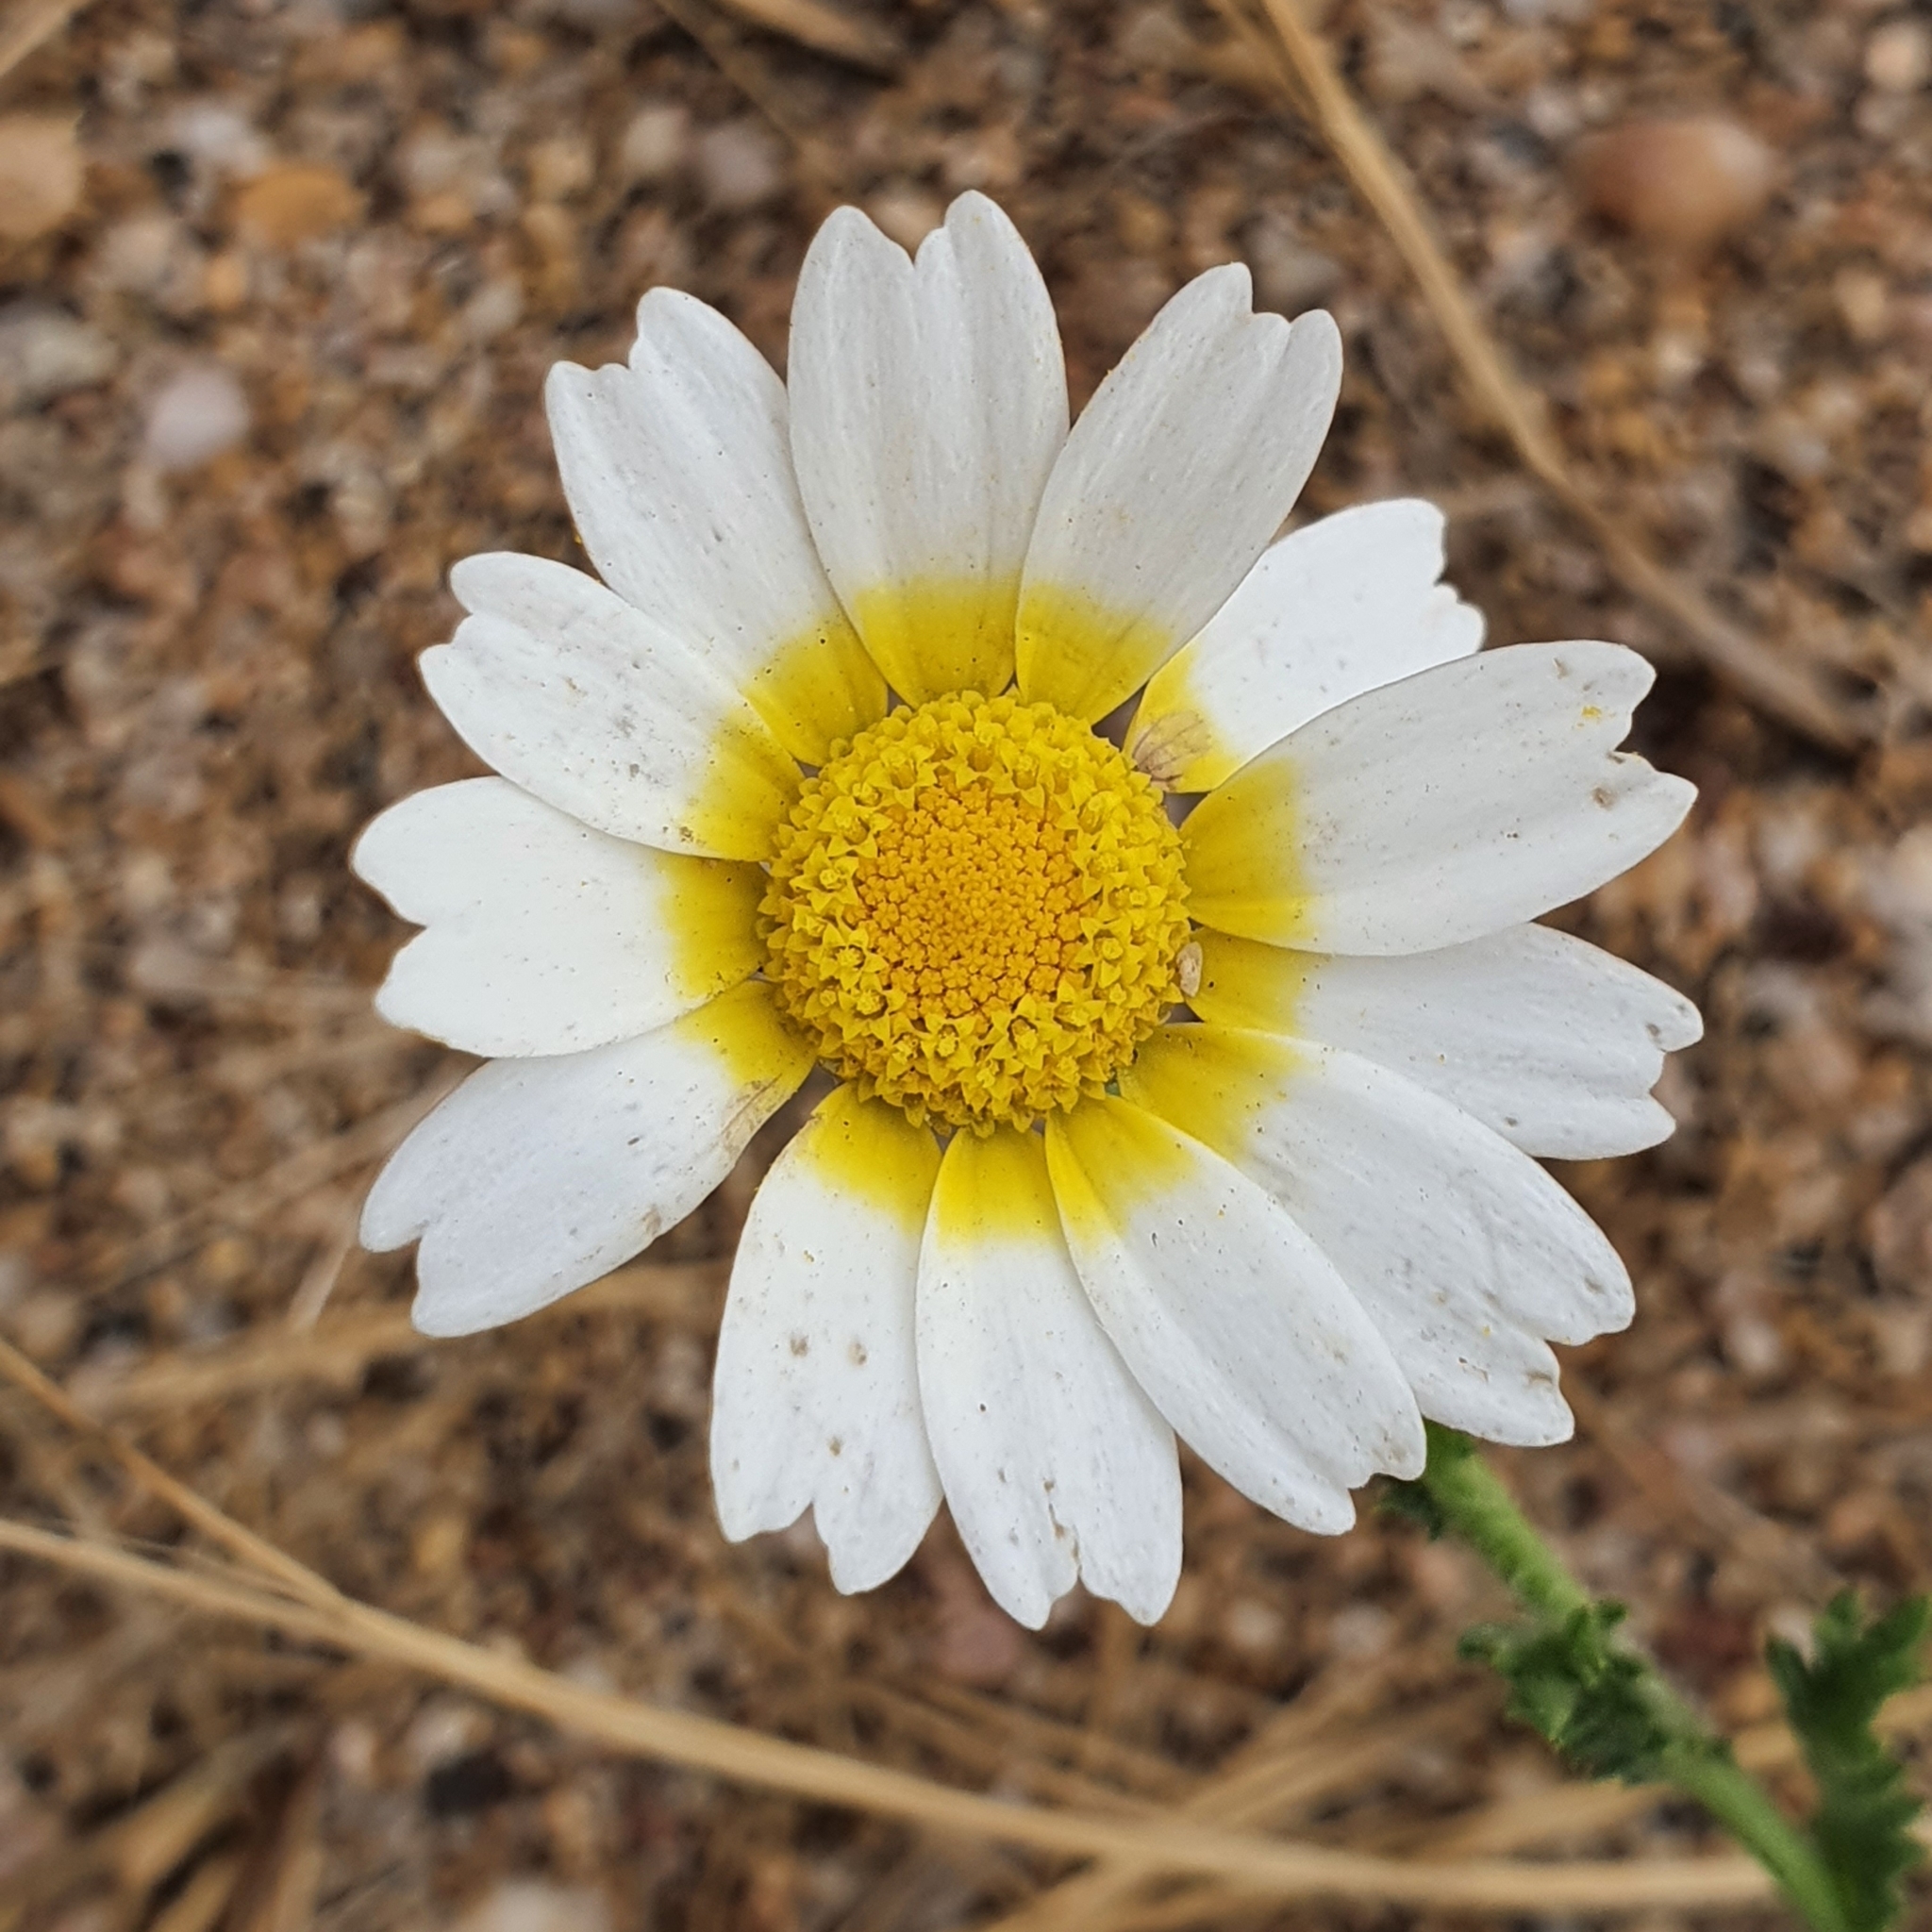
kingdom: Plantae
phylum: Tracheophyta
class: Magnoliopsida
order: Asterales
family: Asteraceae
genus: Glebionis
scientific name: Glebionis coronaria
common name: Crowndaisy
